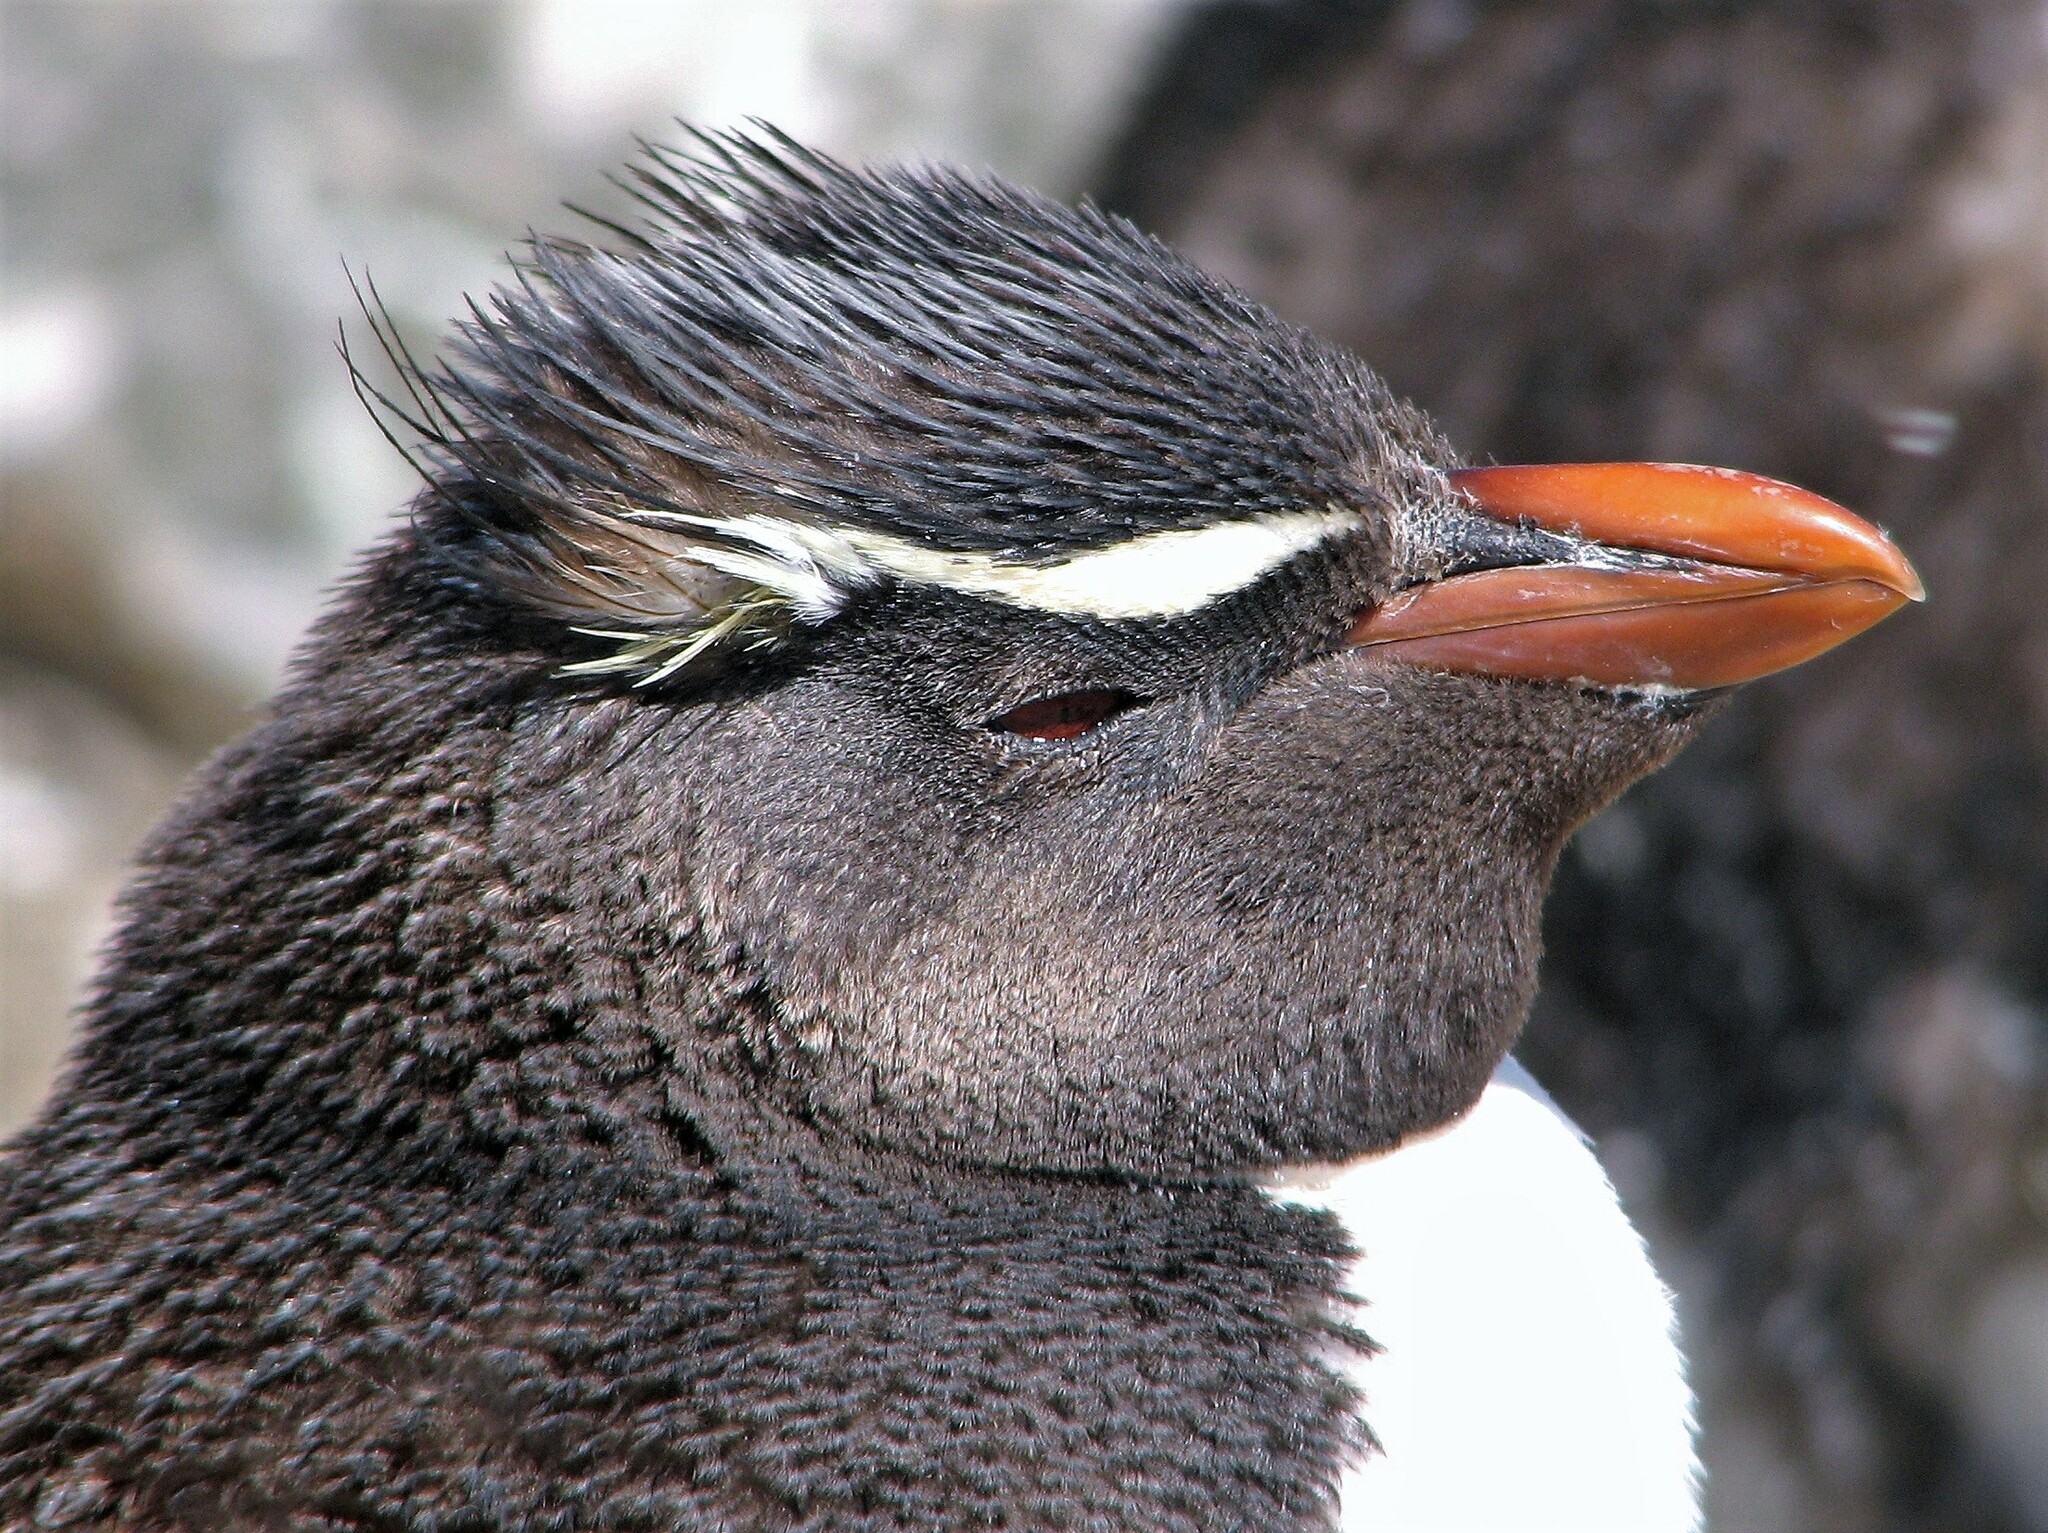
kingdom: Animalia
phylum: Chordata
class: Aves
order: Sphenisciformes
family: Spheniscidae
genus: Eudyptes
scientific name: Eudyptes chrysocome
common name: Southern rockhopper penguin
